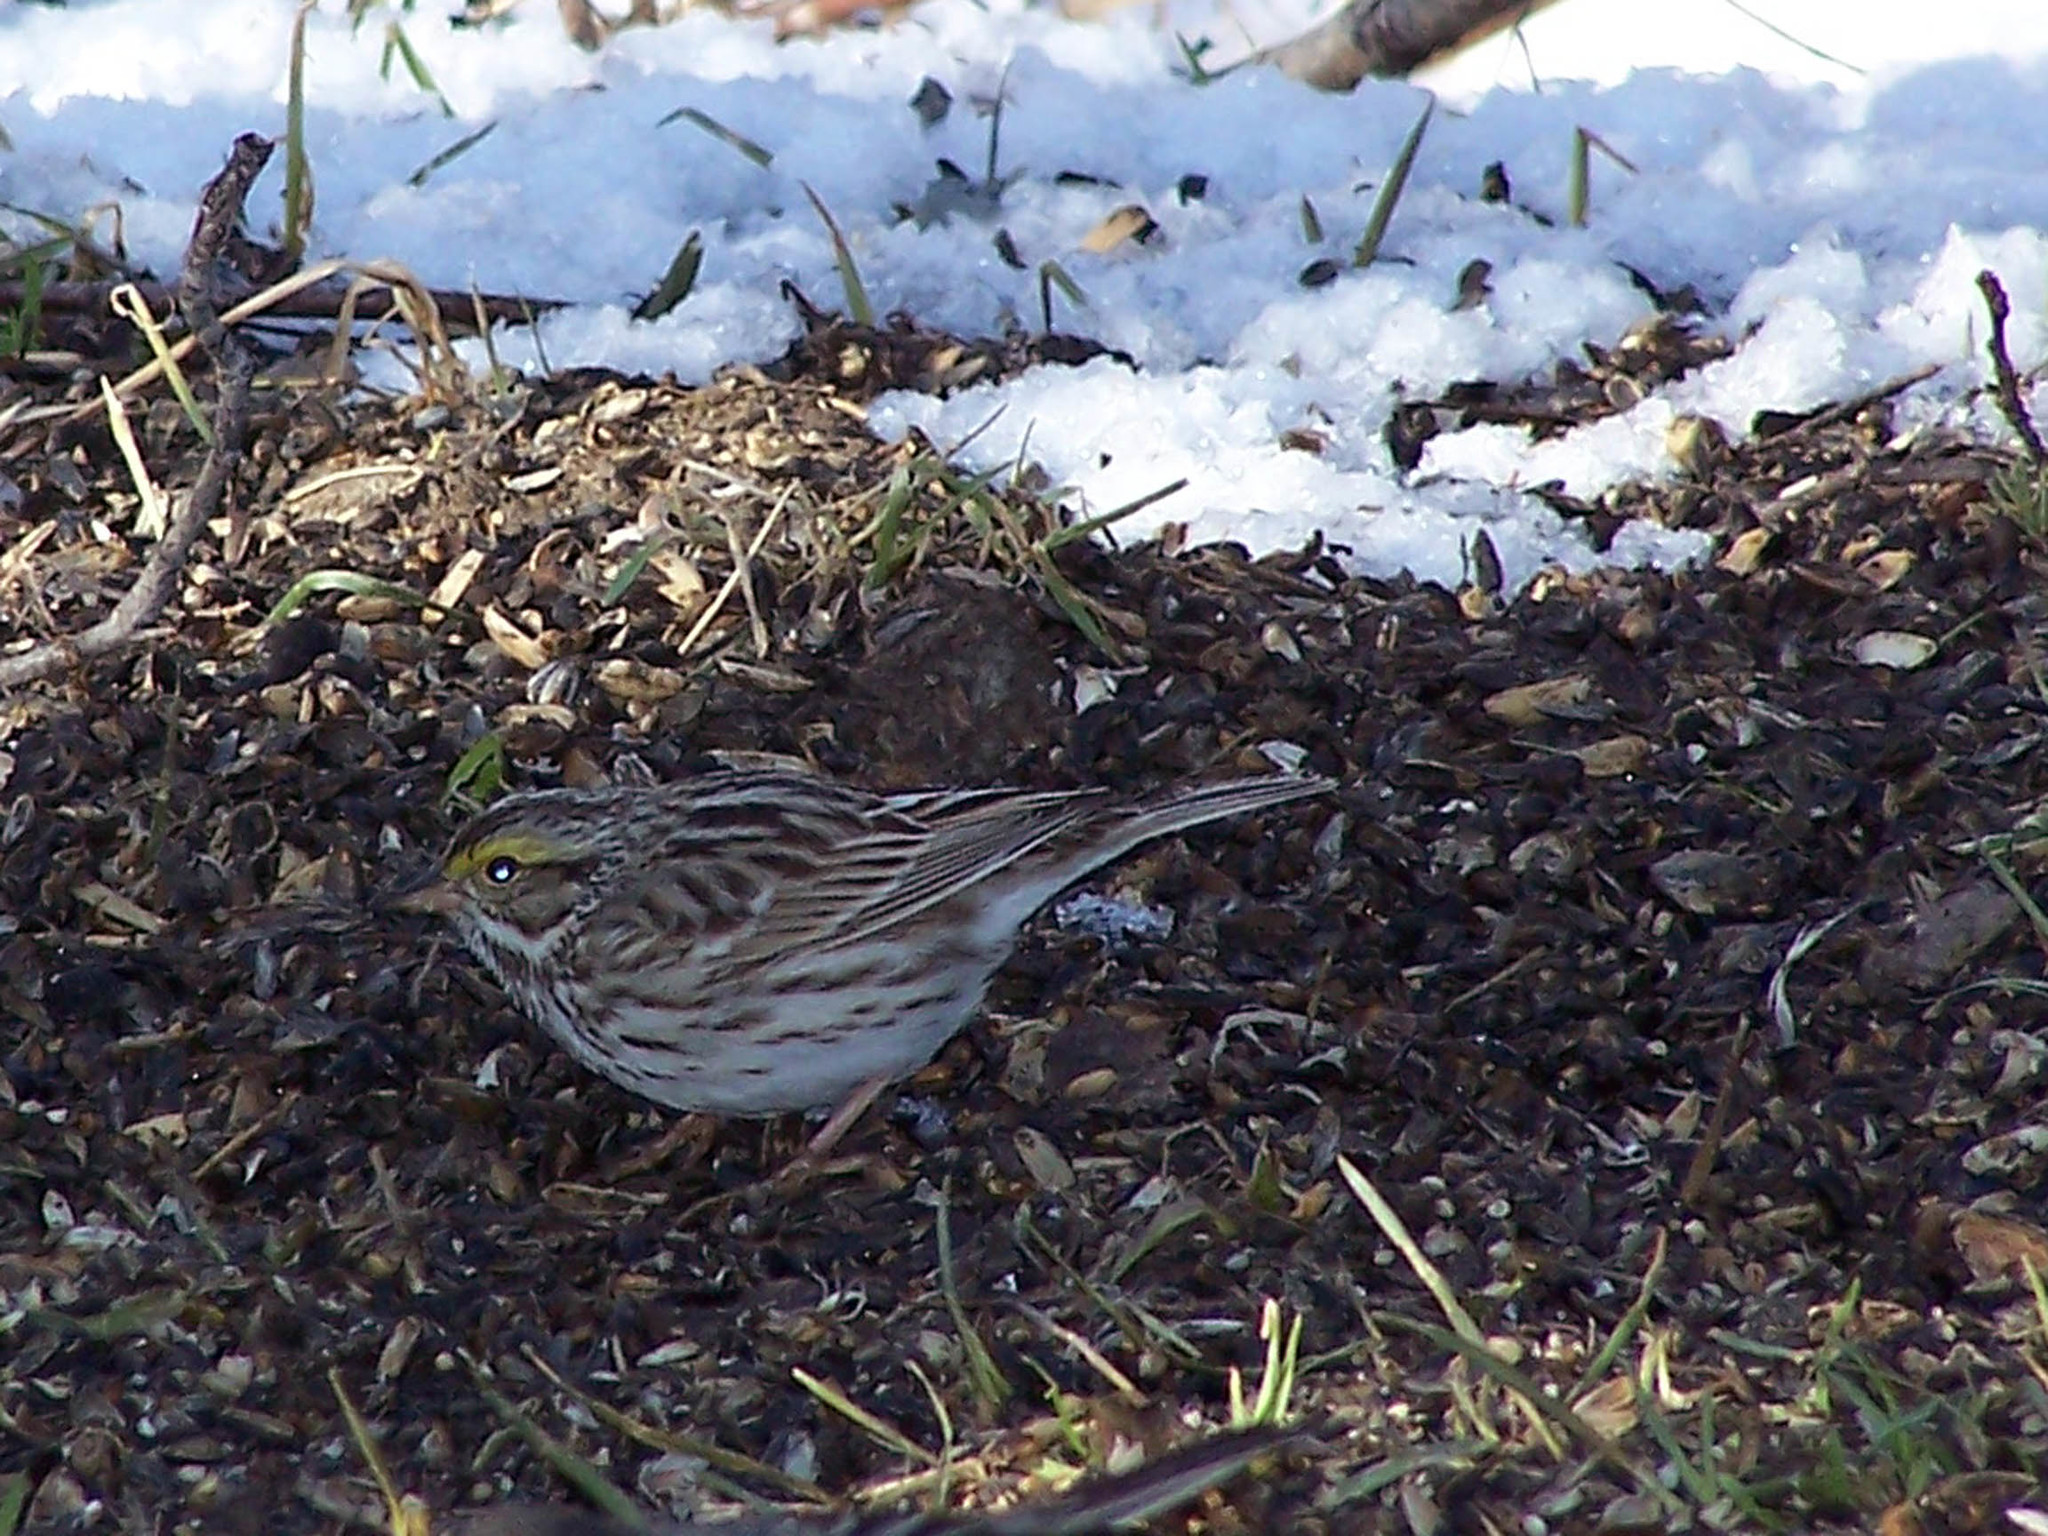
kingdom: Animalia
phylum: Chordata
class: Aves
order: Passeriformes
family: Passerellidae
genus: Passerculus
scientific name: Passerculus sandwichensis
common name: Savannah sparrow
